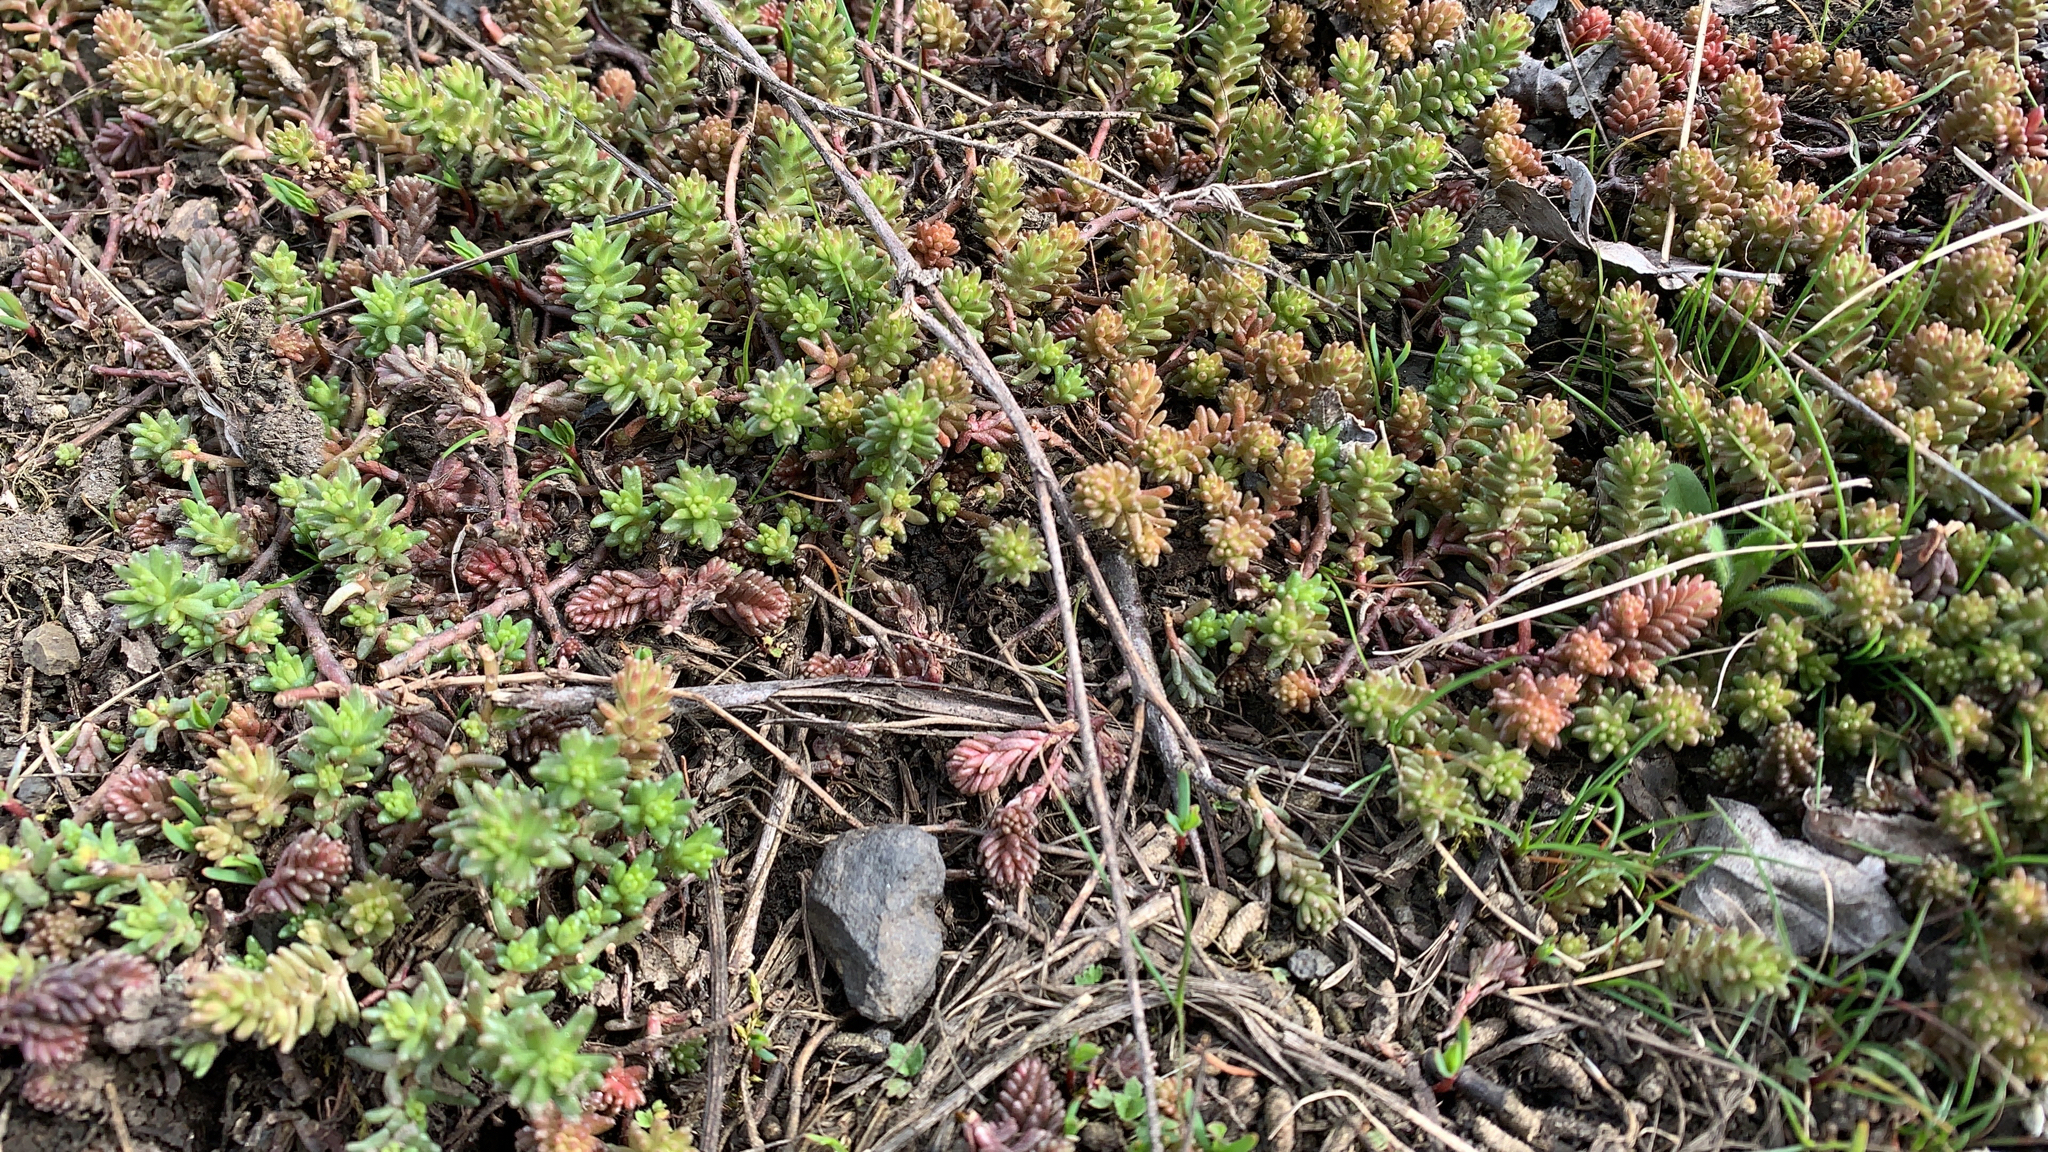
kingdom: Plantae
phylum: Tracheophyta
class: Magnoliopsida
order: Saxifragales
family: Crassulaceae
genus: Sedum
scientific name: Sedum sexangulare
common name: Tasteless stonecrop
